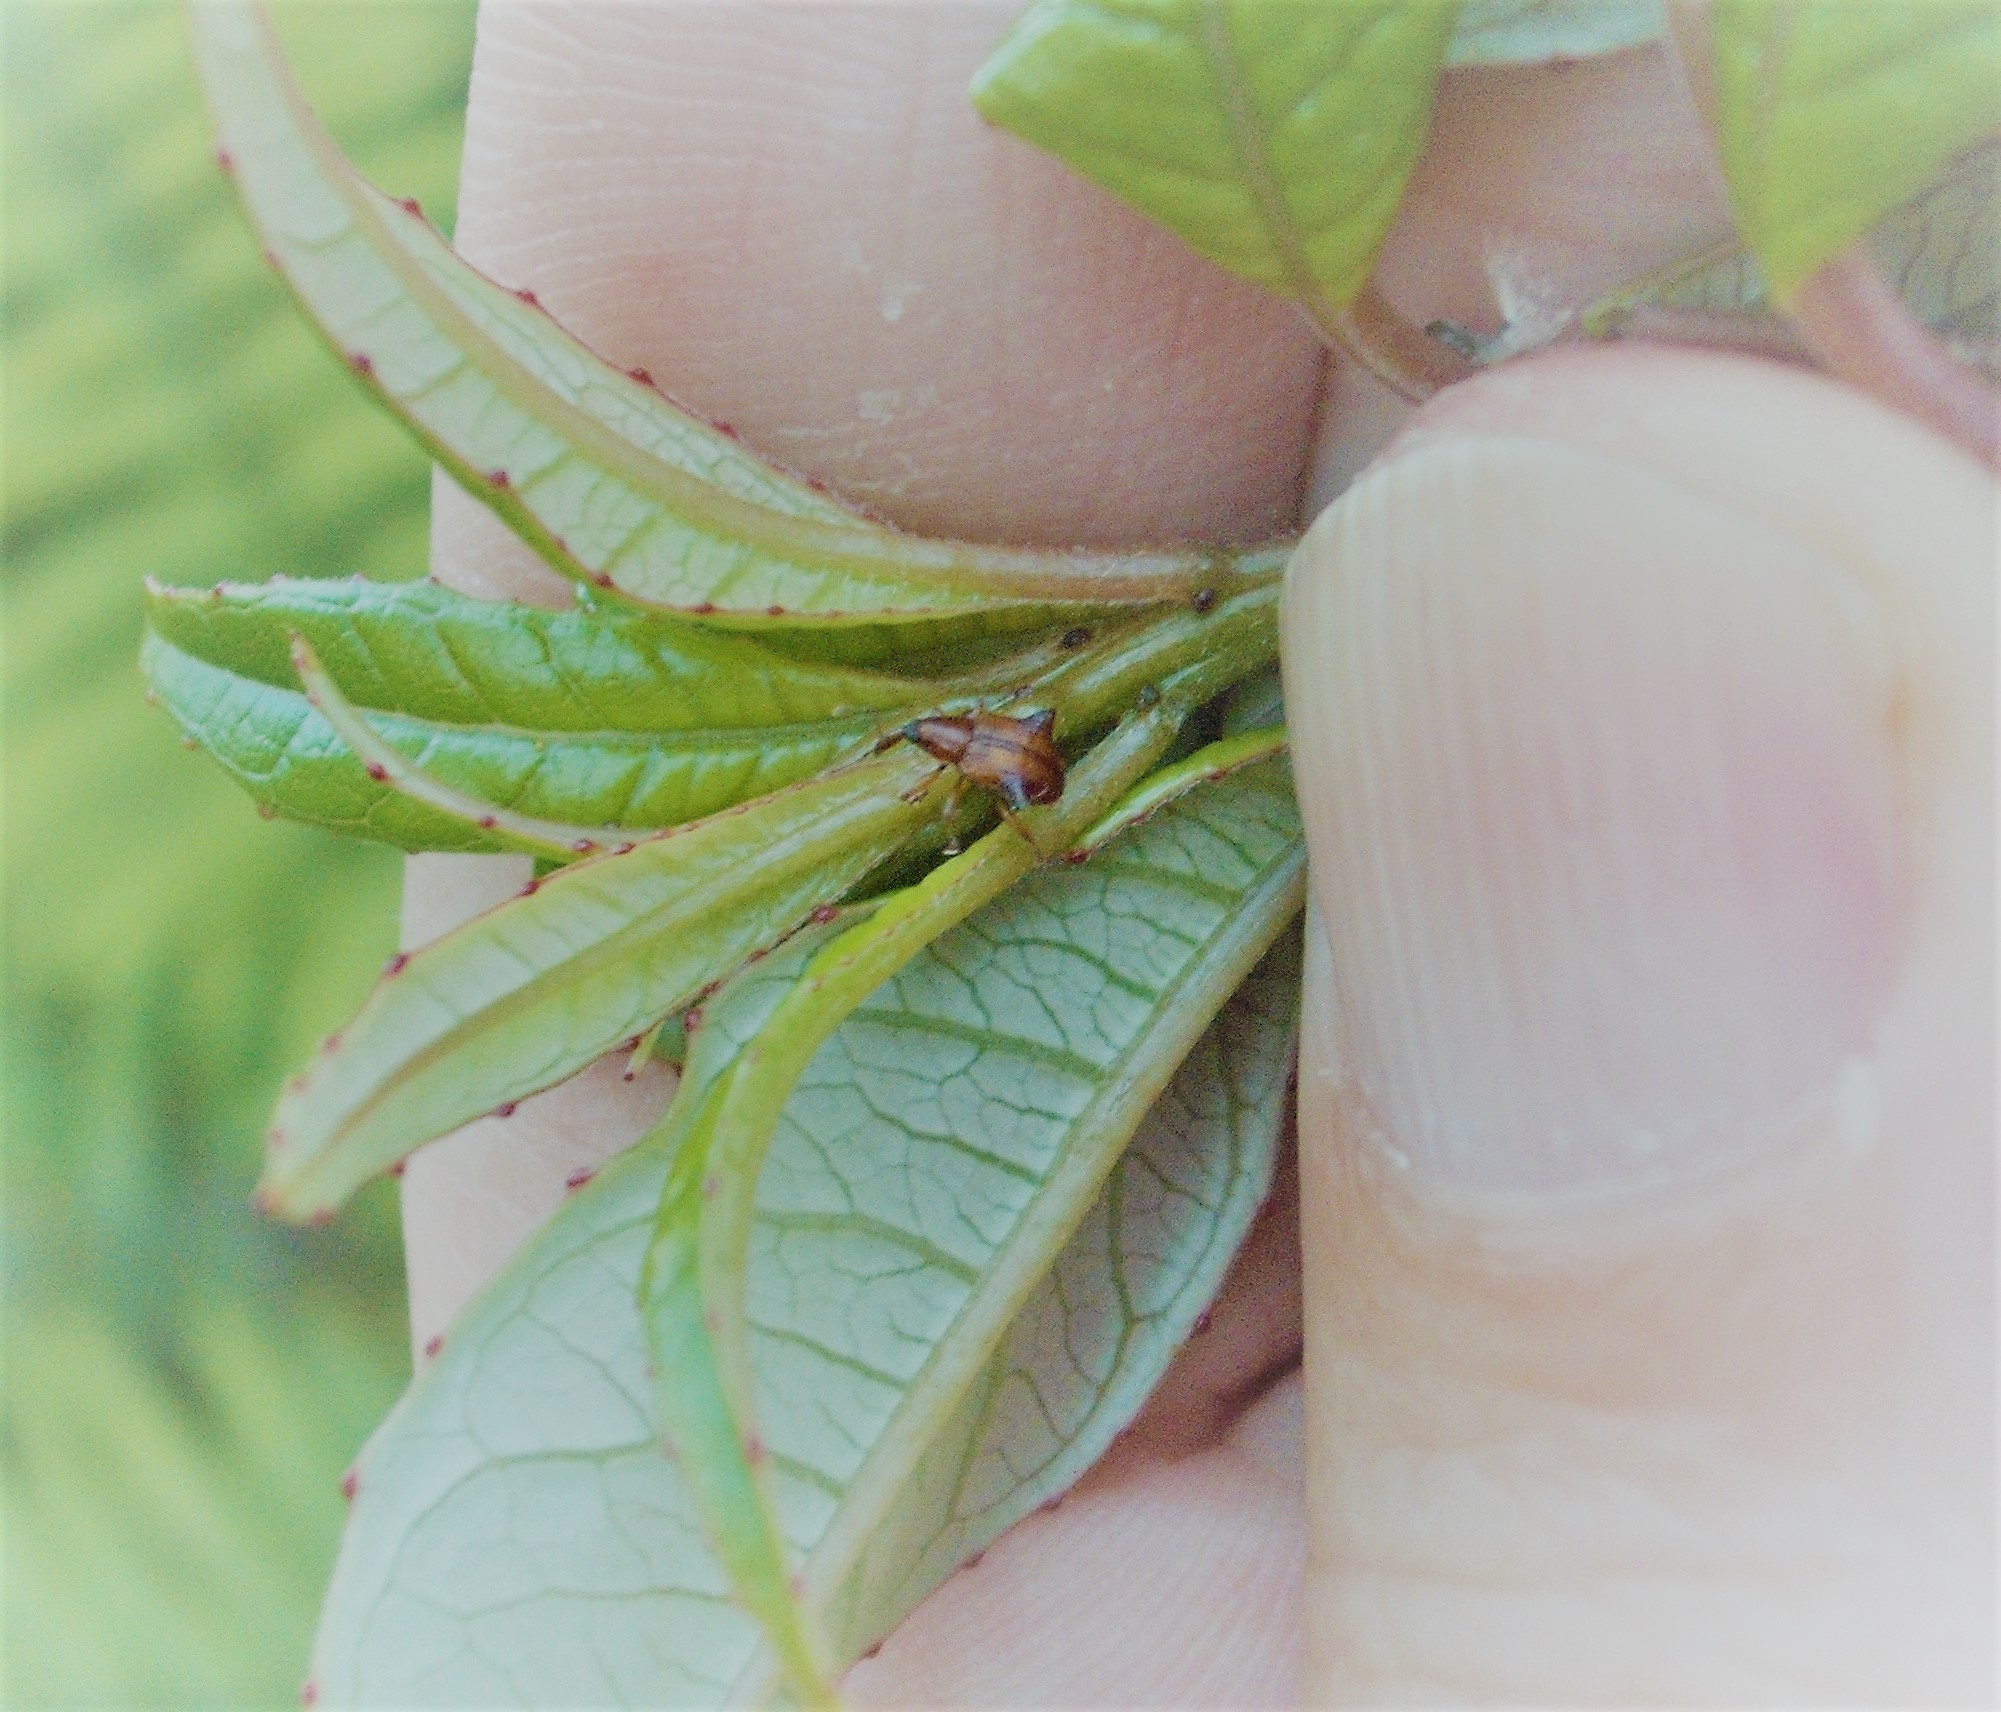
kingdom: Animalia
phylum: Arthropoda
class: Insecta
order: Coleoptera
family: Curculionidae
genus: Oropterus
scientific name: Oropterus coniger
